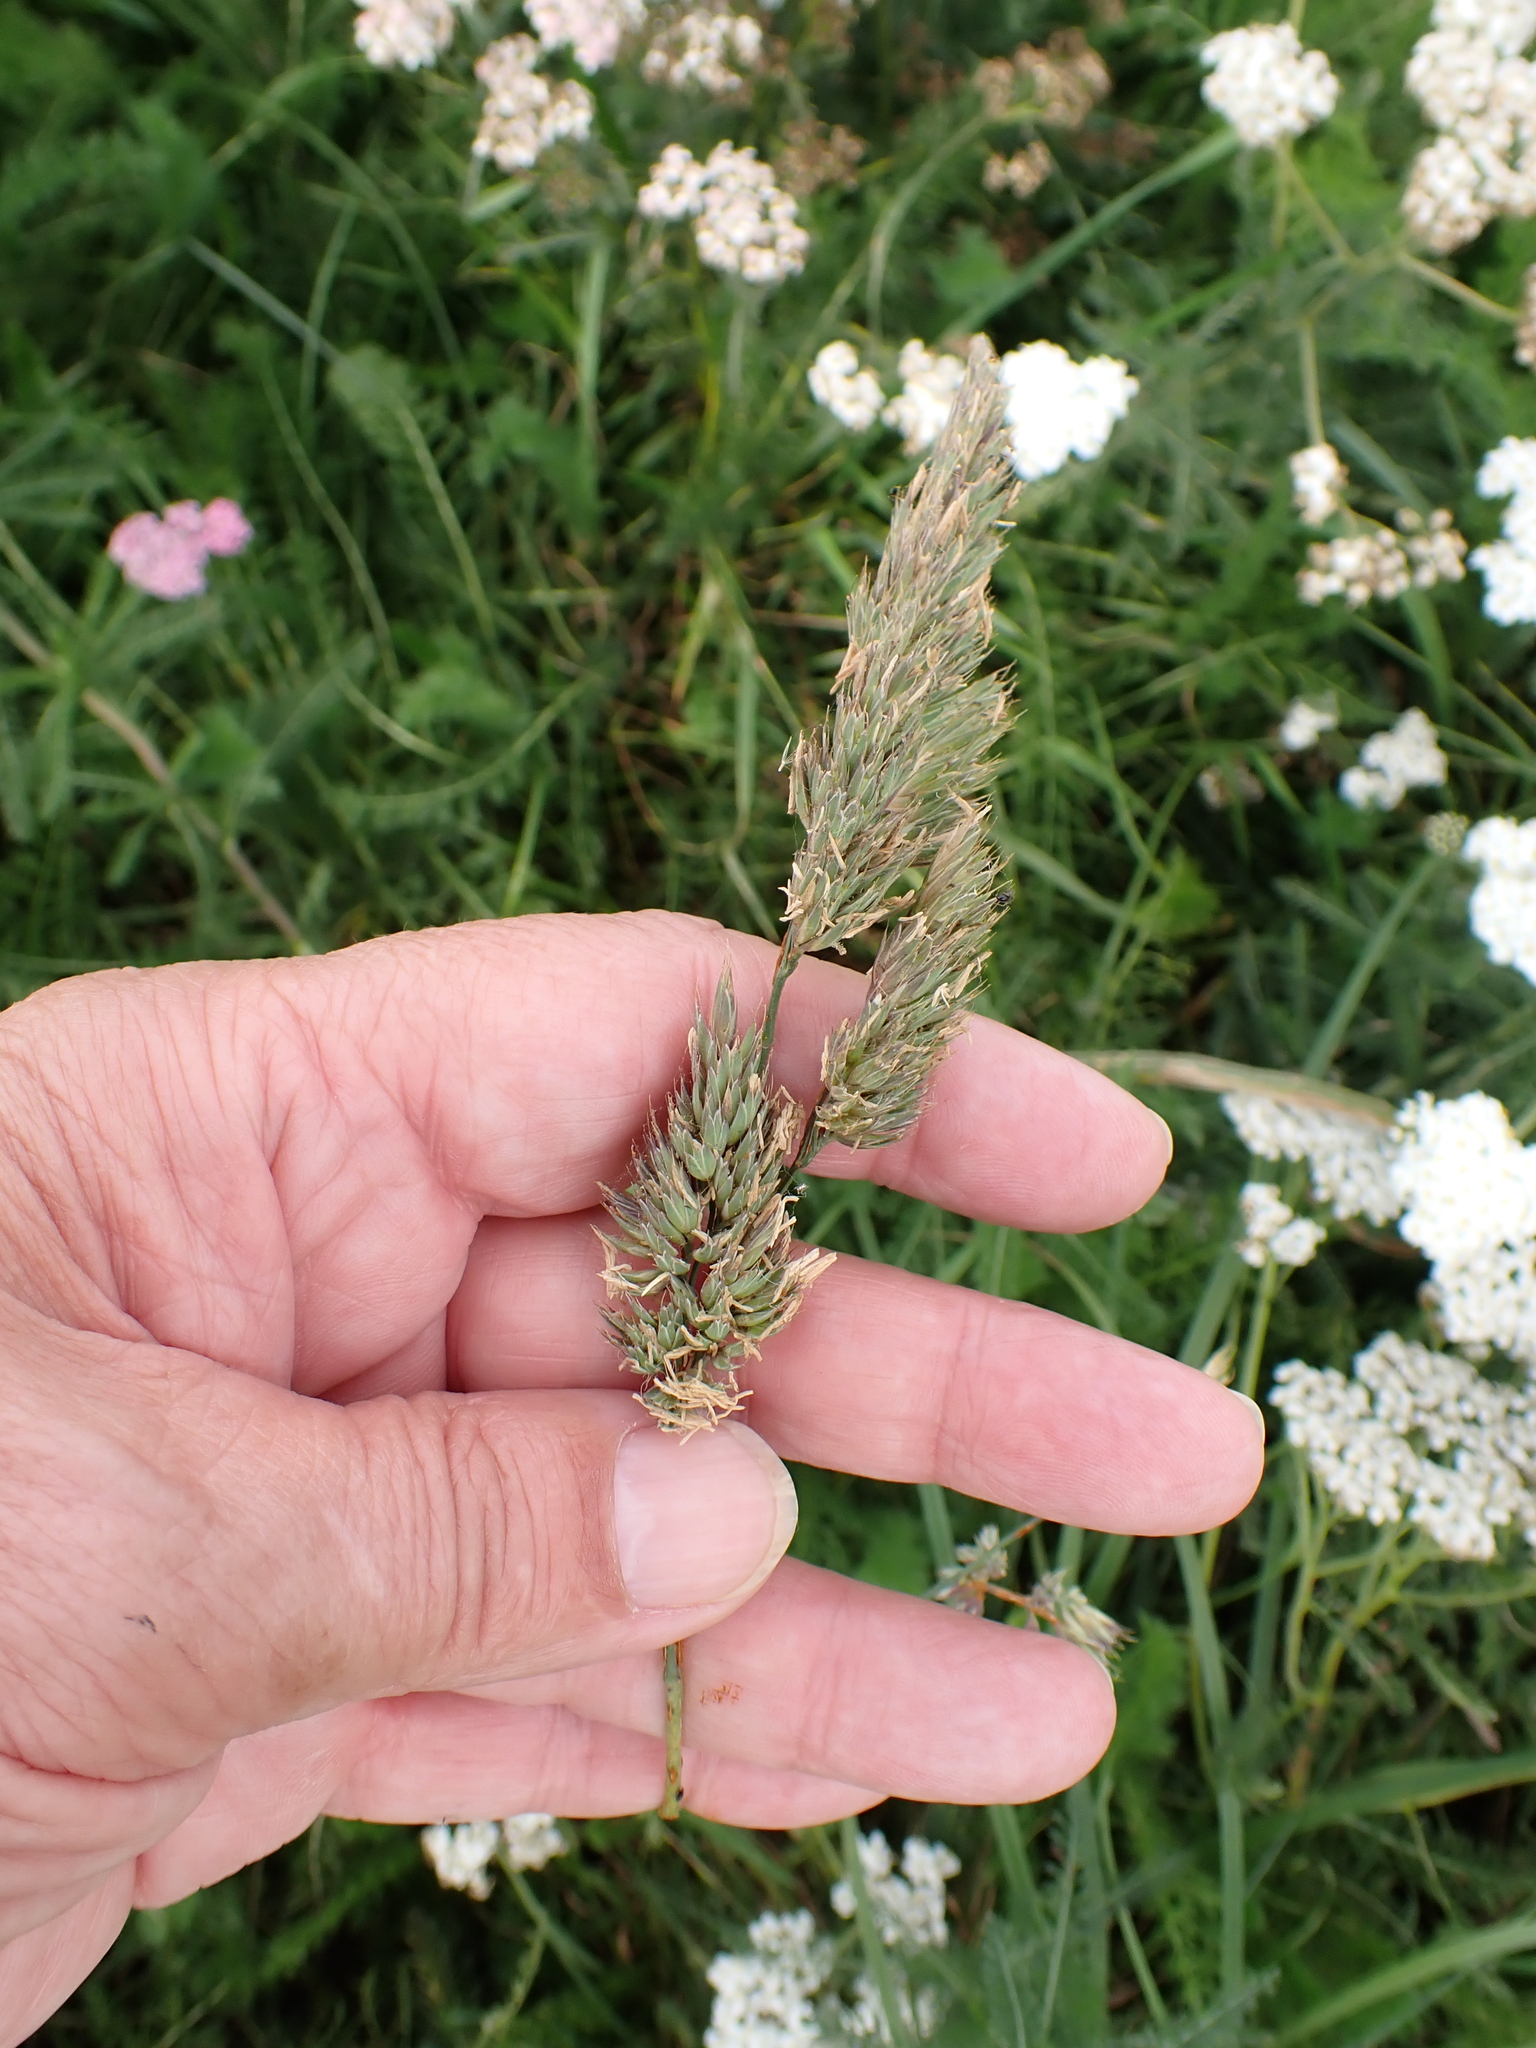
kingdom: Plantae
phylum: Tracheophyta
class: Liliopsida
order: Poales
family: Poaceae
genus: Dactylis
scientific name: Dactylis glomerata
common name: Orchardgrass
